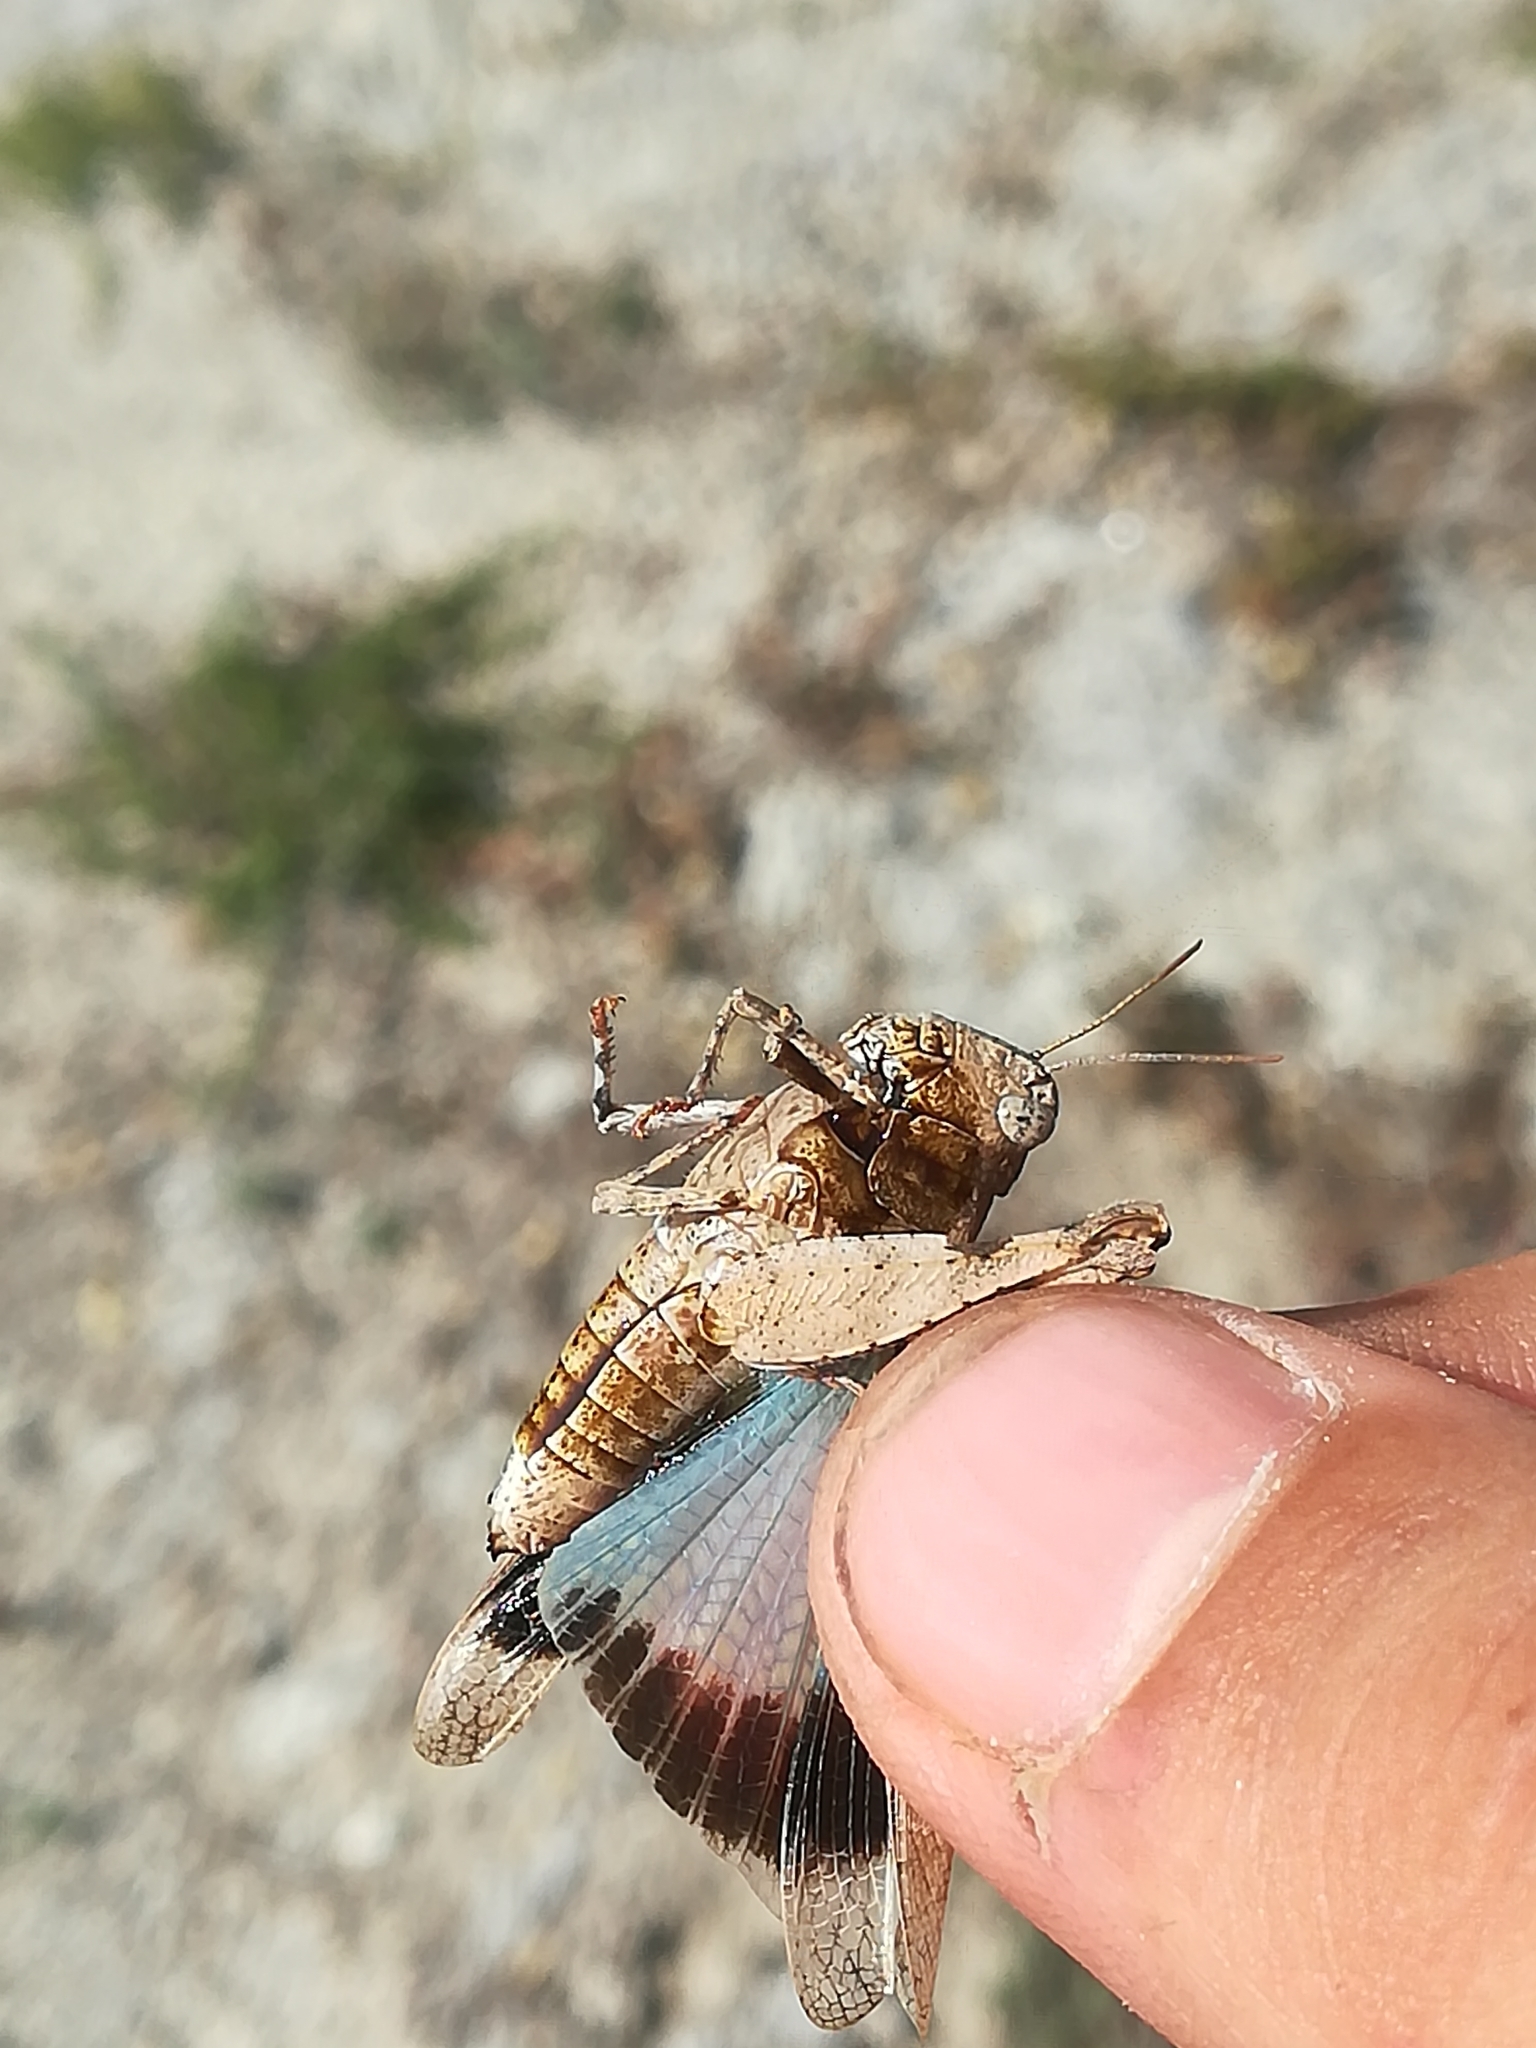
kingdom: Animalia
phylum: Arthropoda
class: Insecta
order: Orthoptera
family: Acrididae
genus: Oedipoda
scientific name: Oedipoda caerulescens
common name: Blue-winged grasshopper
